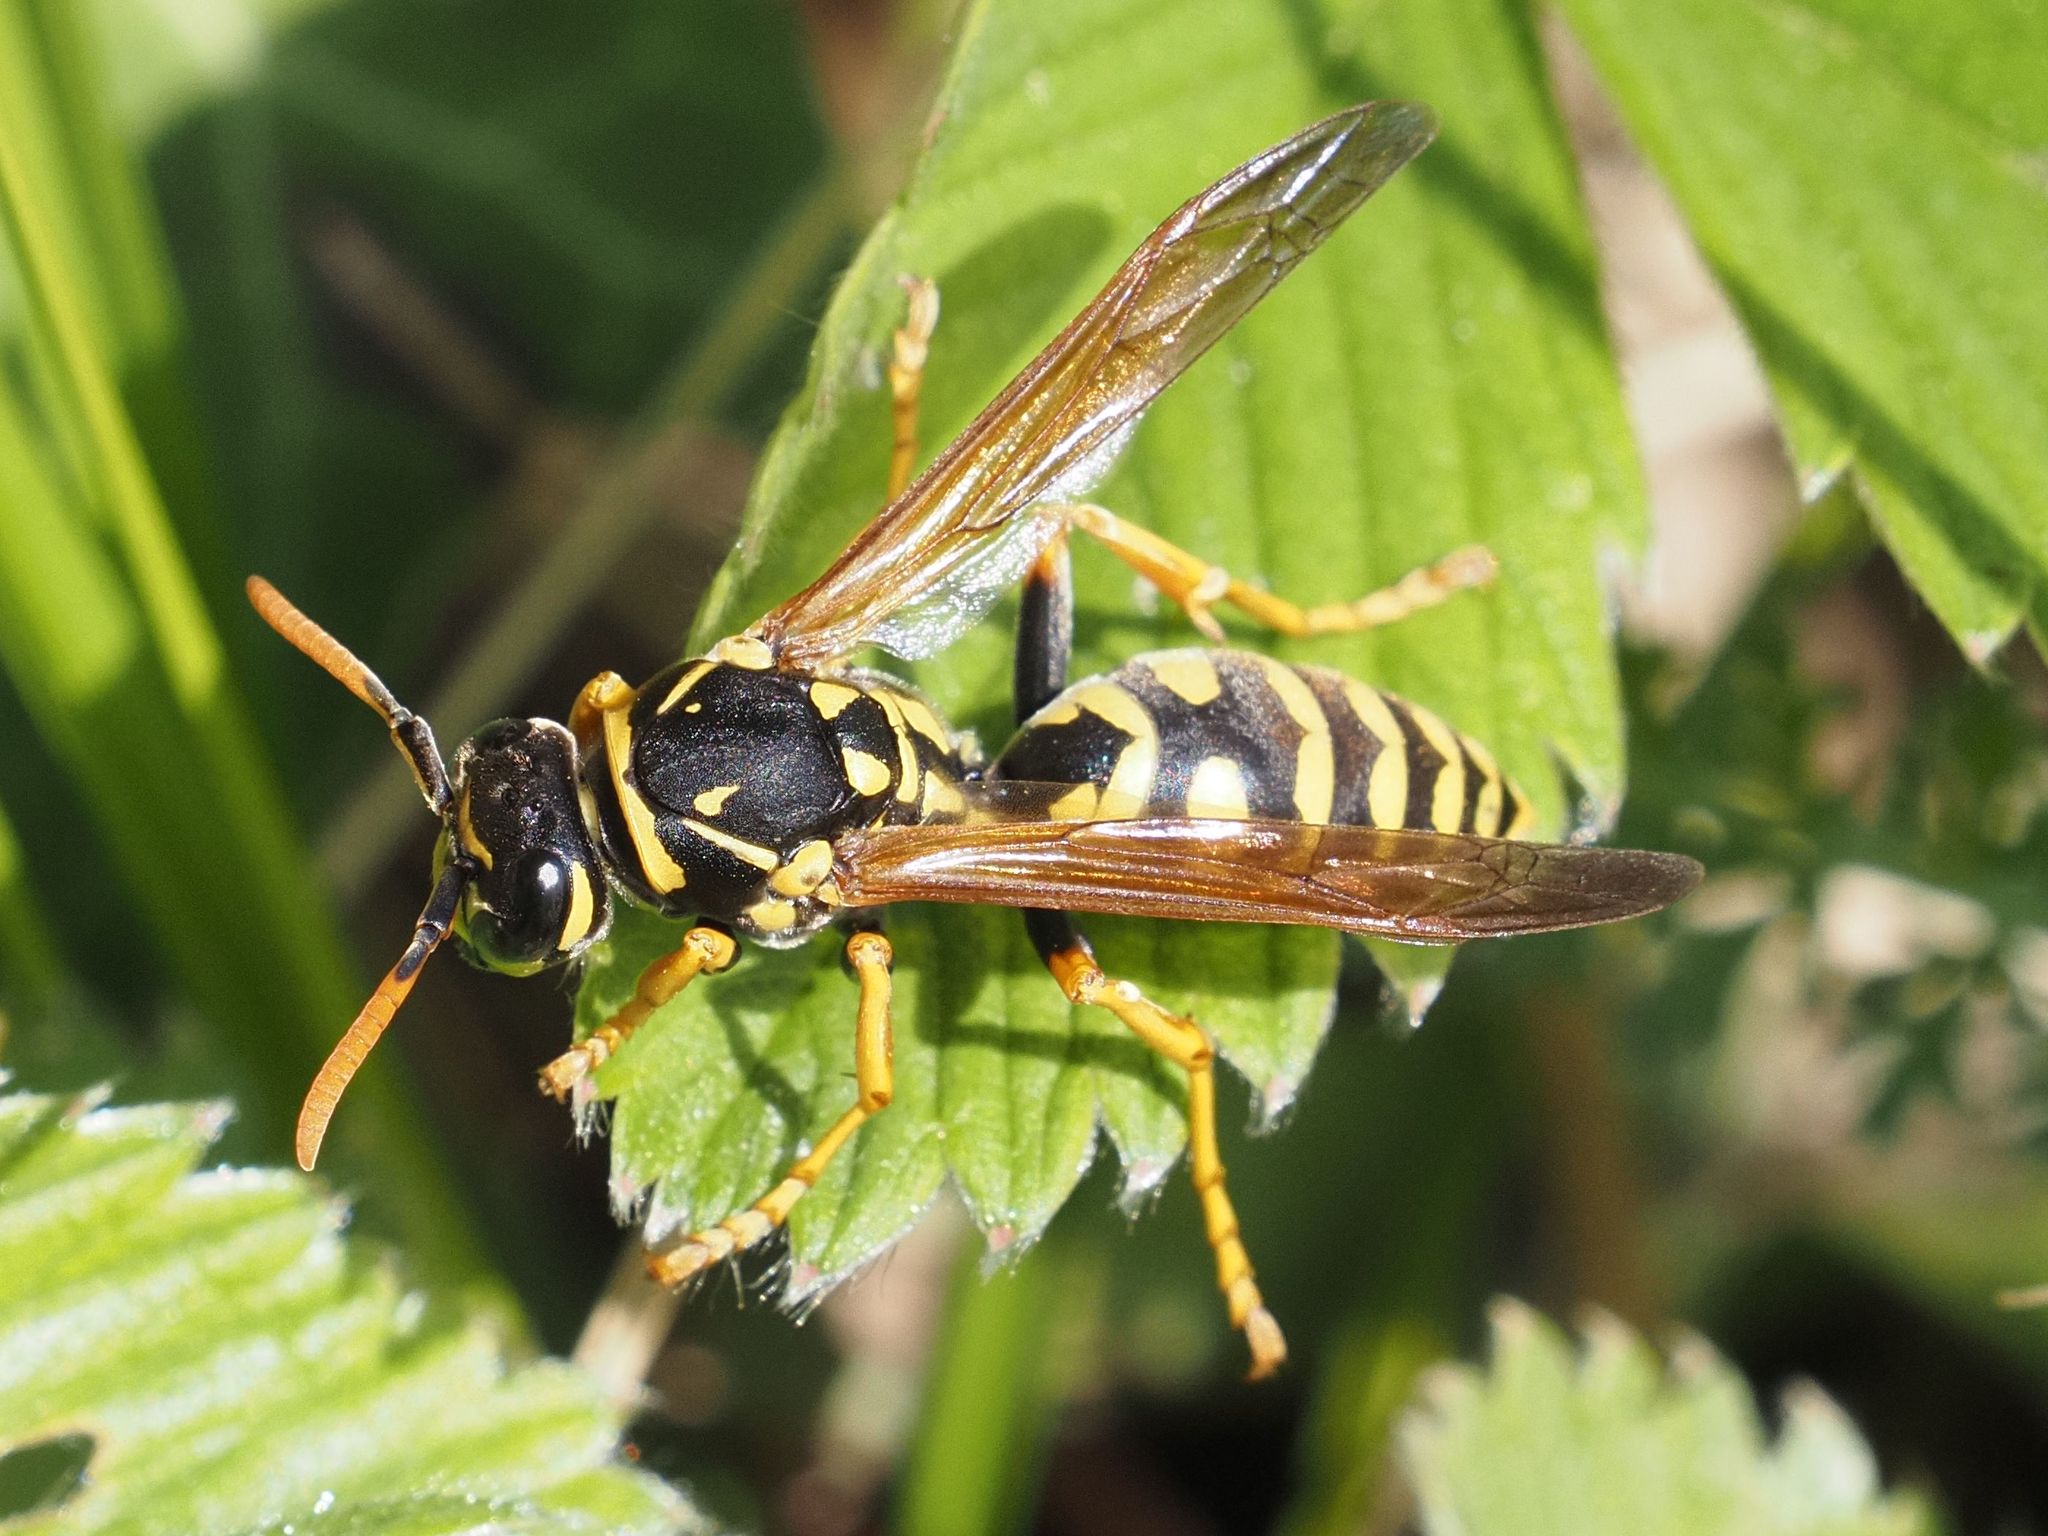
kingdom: Animalia
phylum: Arthropoda
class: Insecta
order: Hymenoptera
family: Eumenidae
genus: Polistes
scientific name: Polistes dominula
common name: Paper wasp
